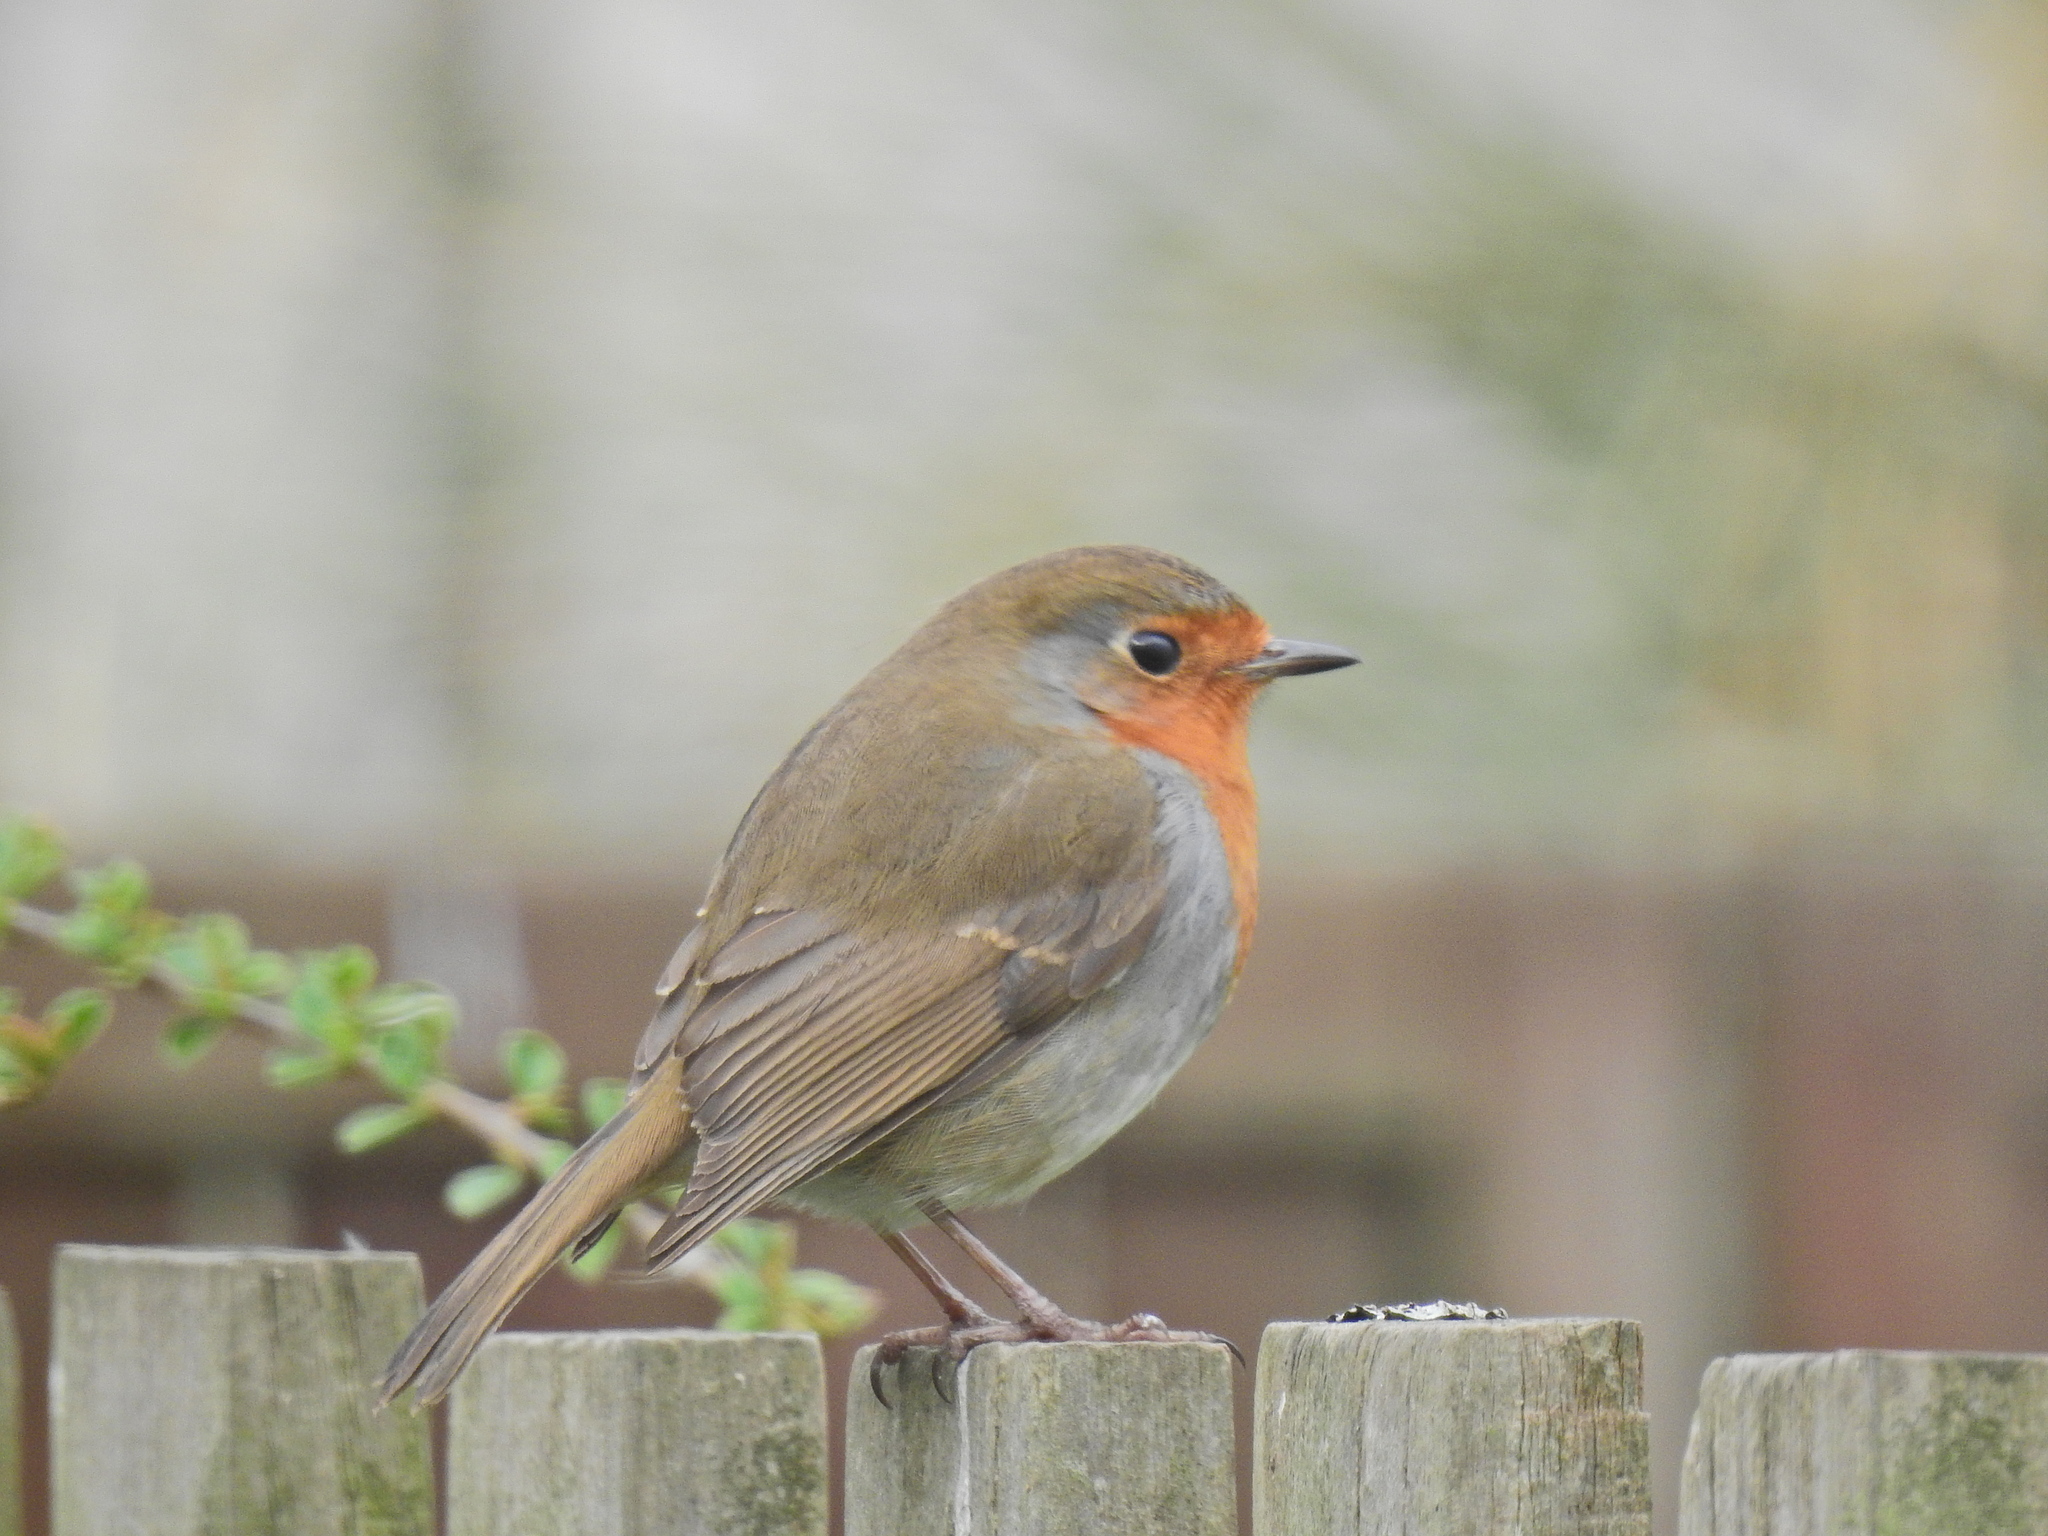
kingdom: Animalia
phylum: Chordata
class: Aves
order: Passeriformes
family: Muscicapidae
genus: Erithacus
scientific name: Erithacus rubecula
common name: European robin
